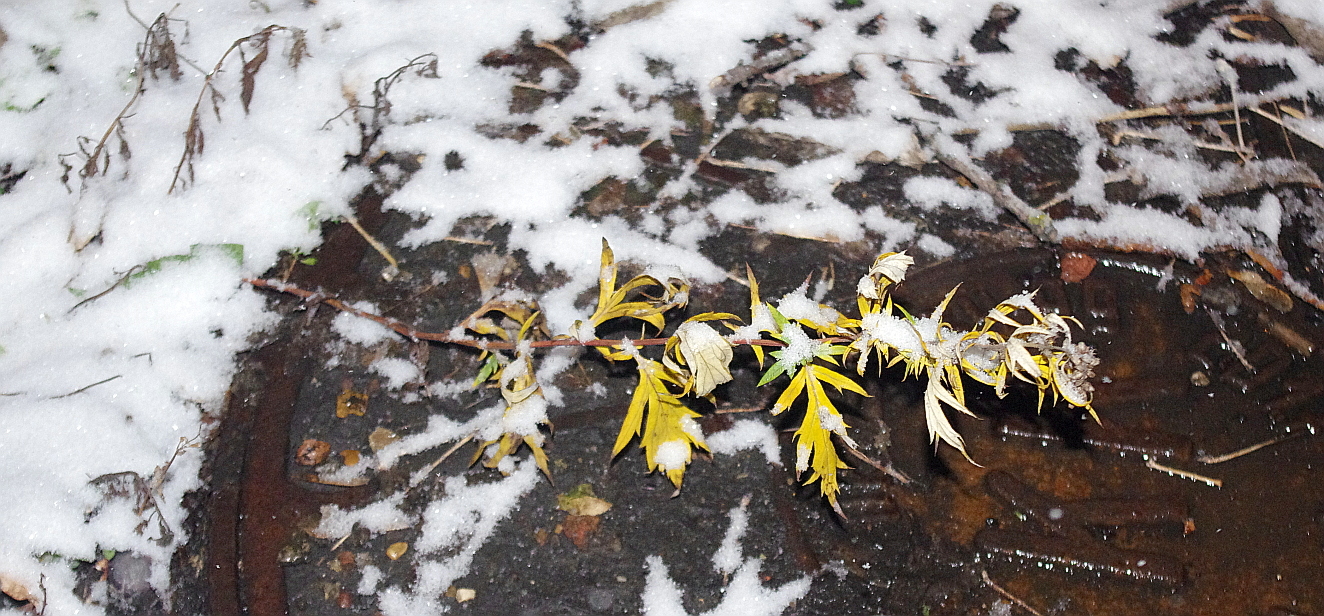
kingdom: Plantae
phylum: Tracheophyta
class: Magnoliopsida
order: Asterales
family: Asteraceae
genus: Artemisia
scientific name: Artemisia vulgaris
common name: Mugwort
